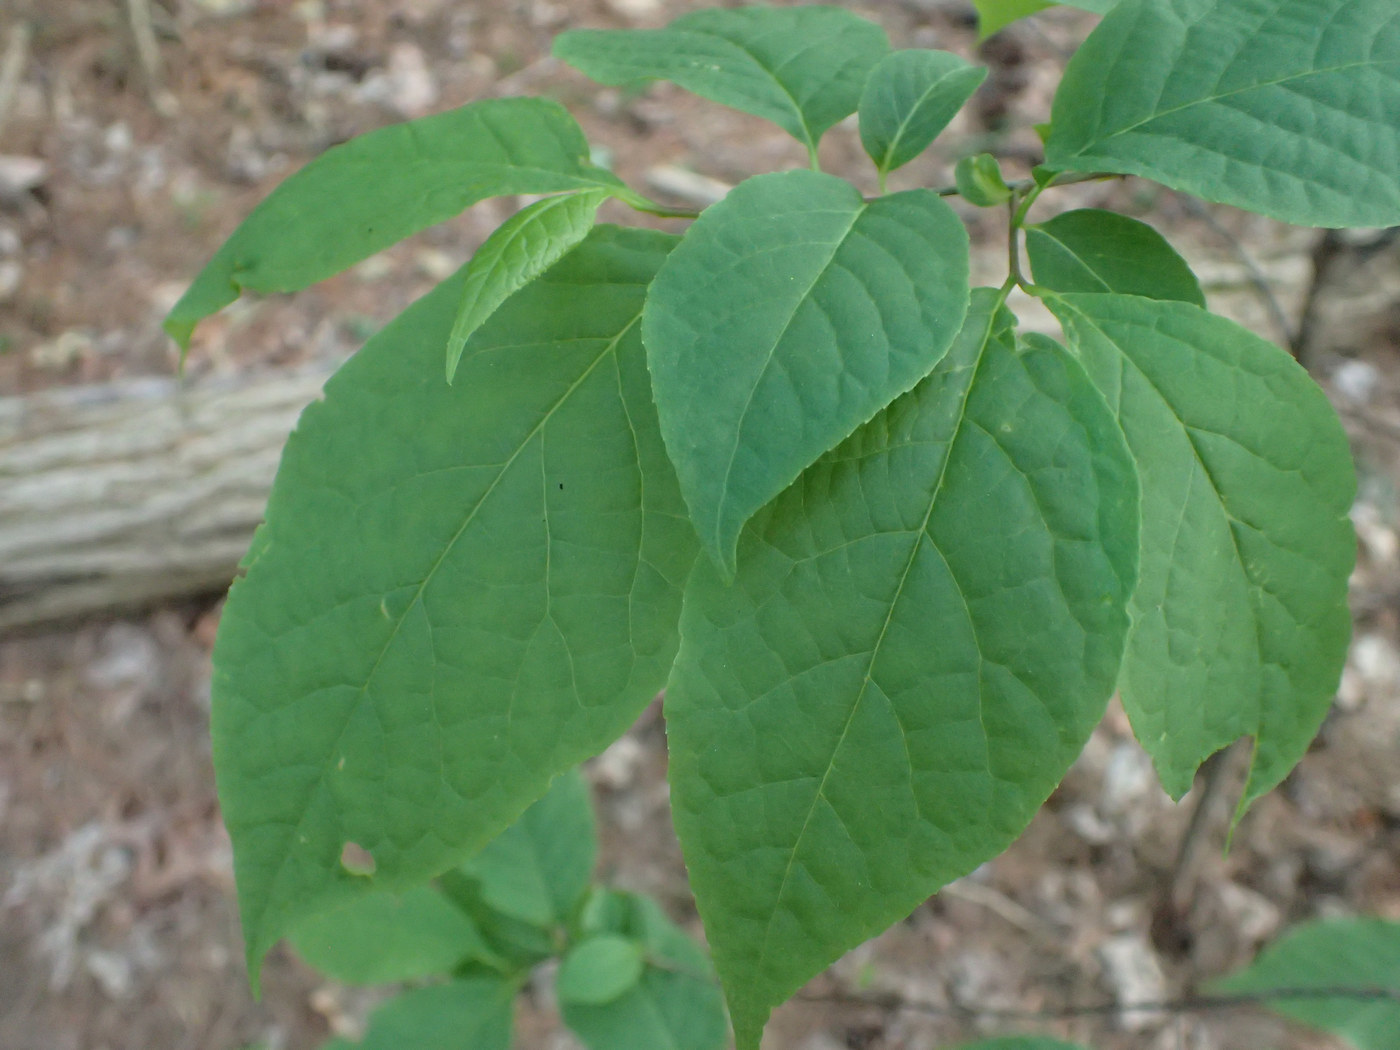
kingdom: Plantae
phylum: Tracheophyta
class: Magnoliopsida
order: Ericales
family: Styracaceae
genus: Halesia
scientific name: Halesia tetraptera
